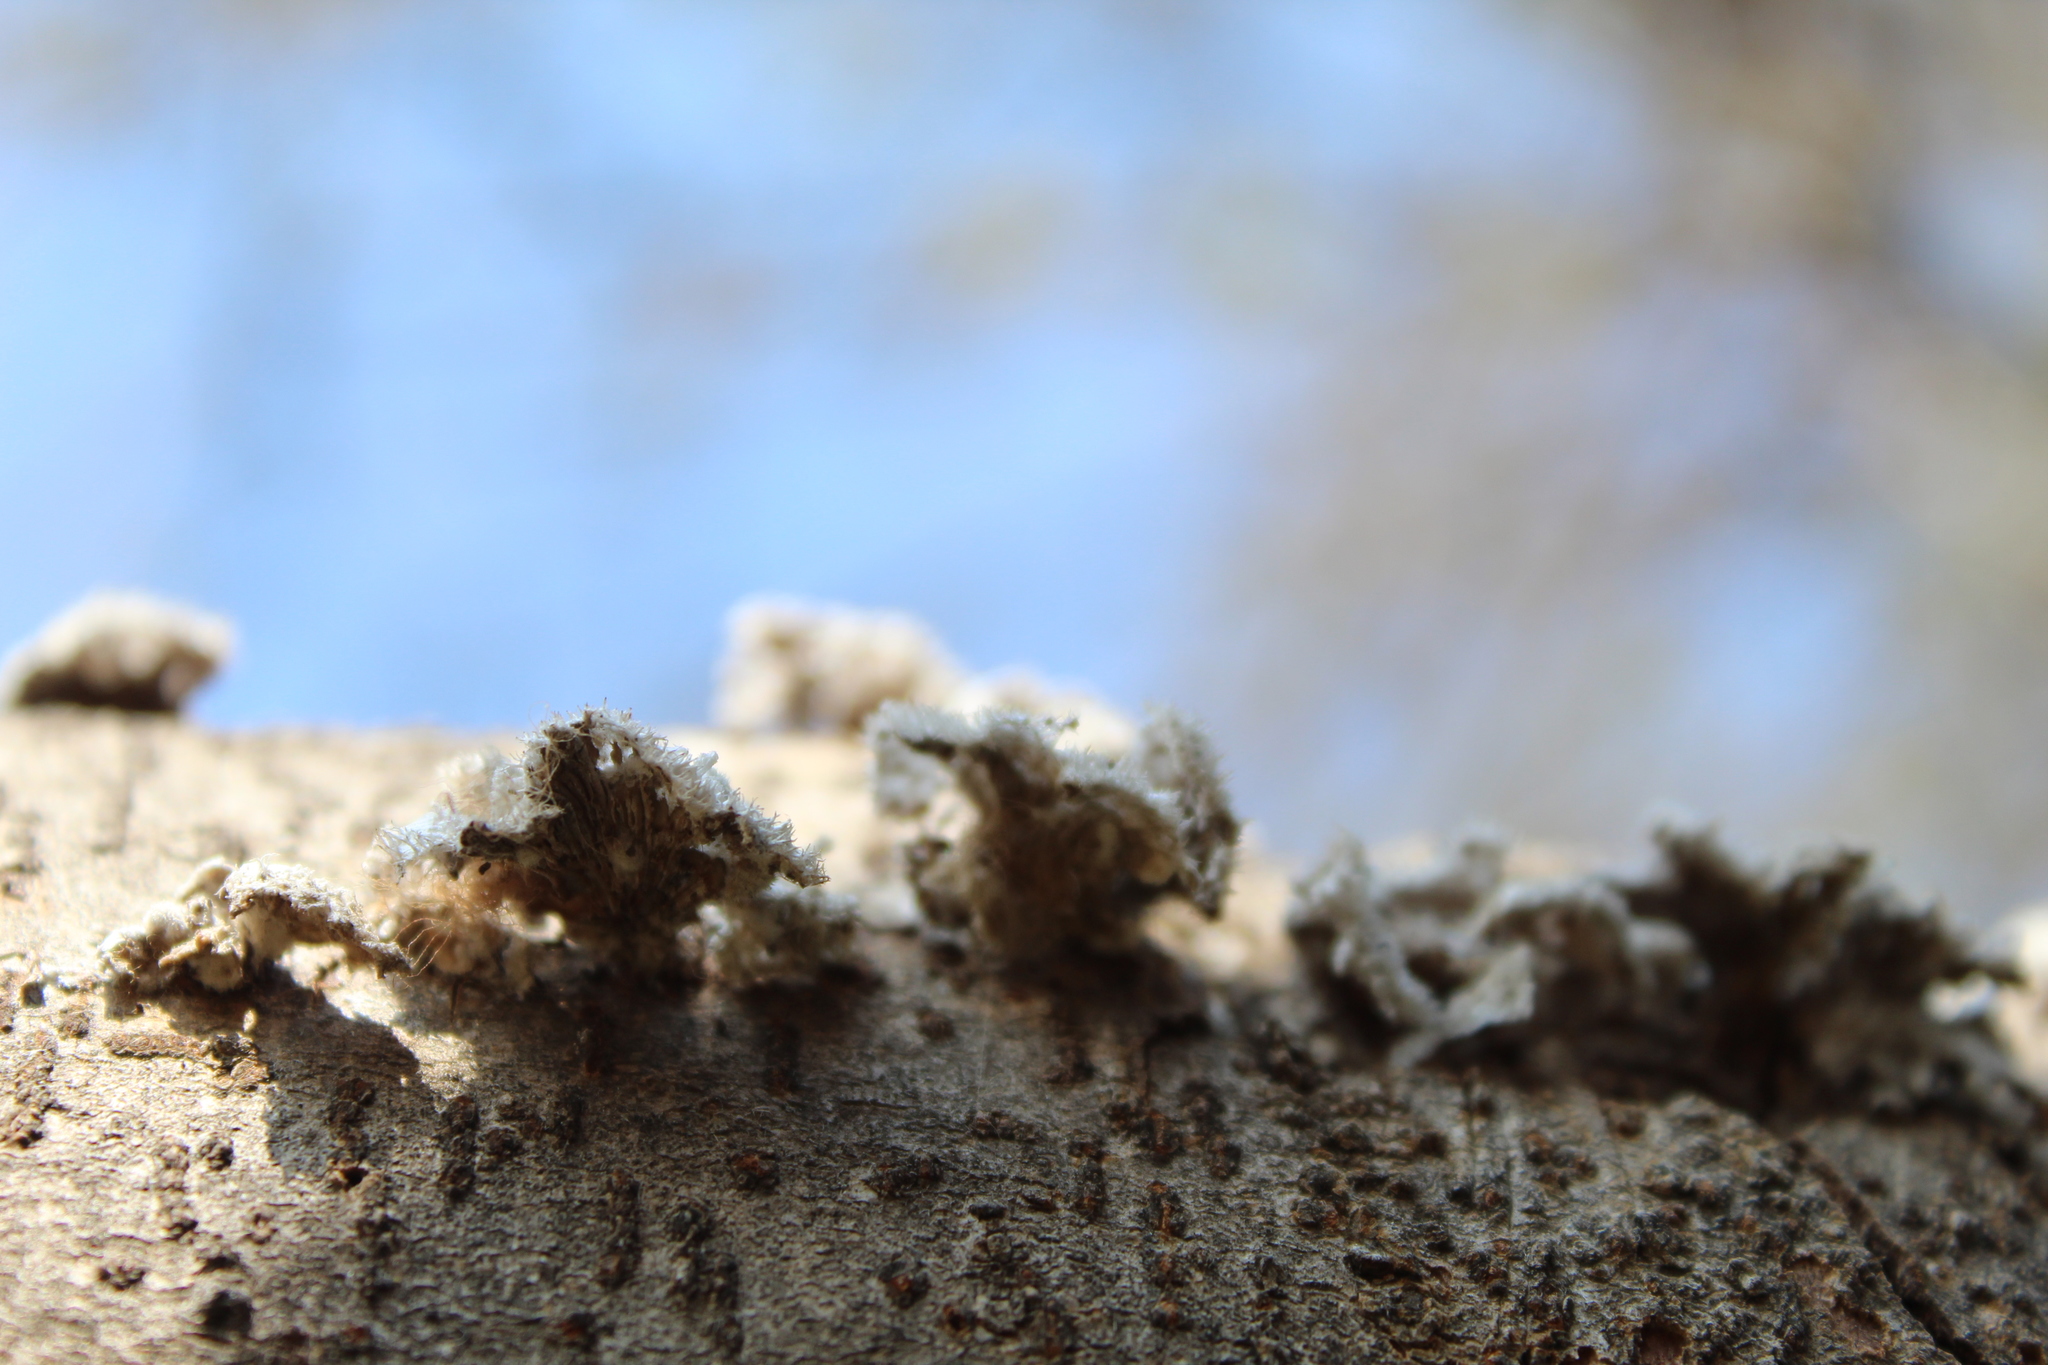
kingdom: Fungi
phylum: Basidiomycota
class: Agaricomycetes
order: Agaricales
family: Schizophyllaceae
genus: Schizophyllum
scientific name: Schizophyllum commune
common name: Common porecrust
